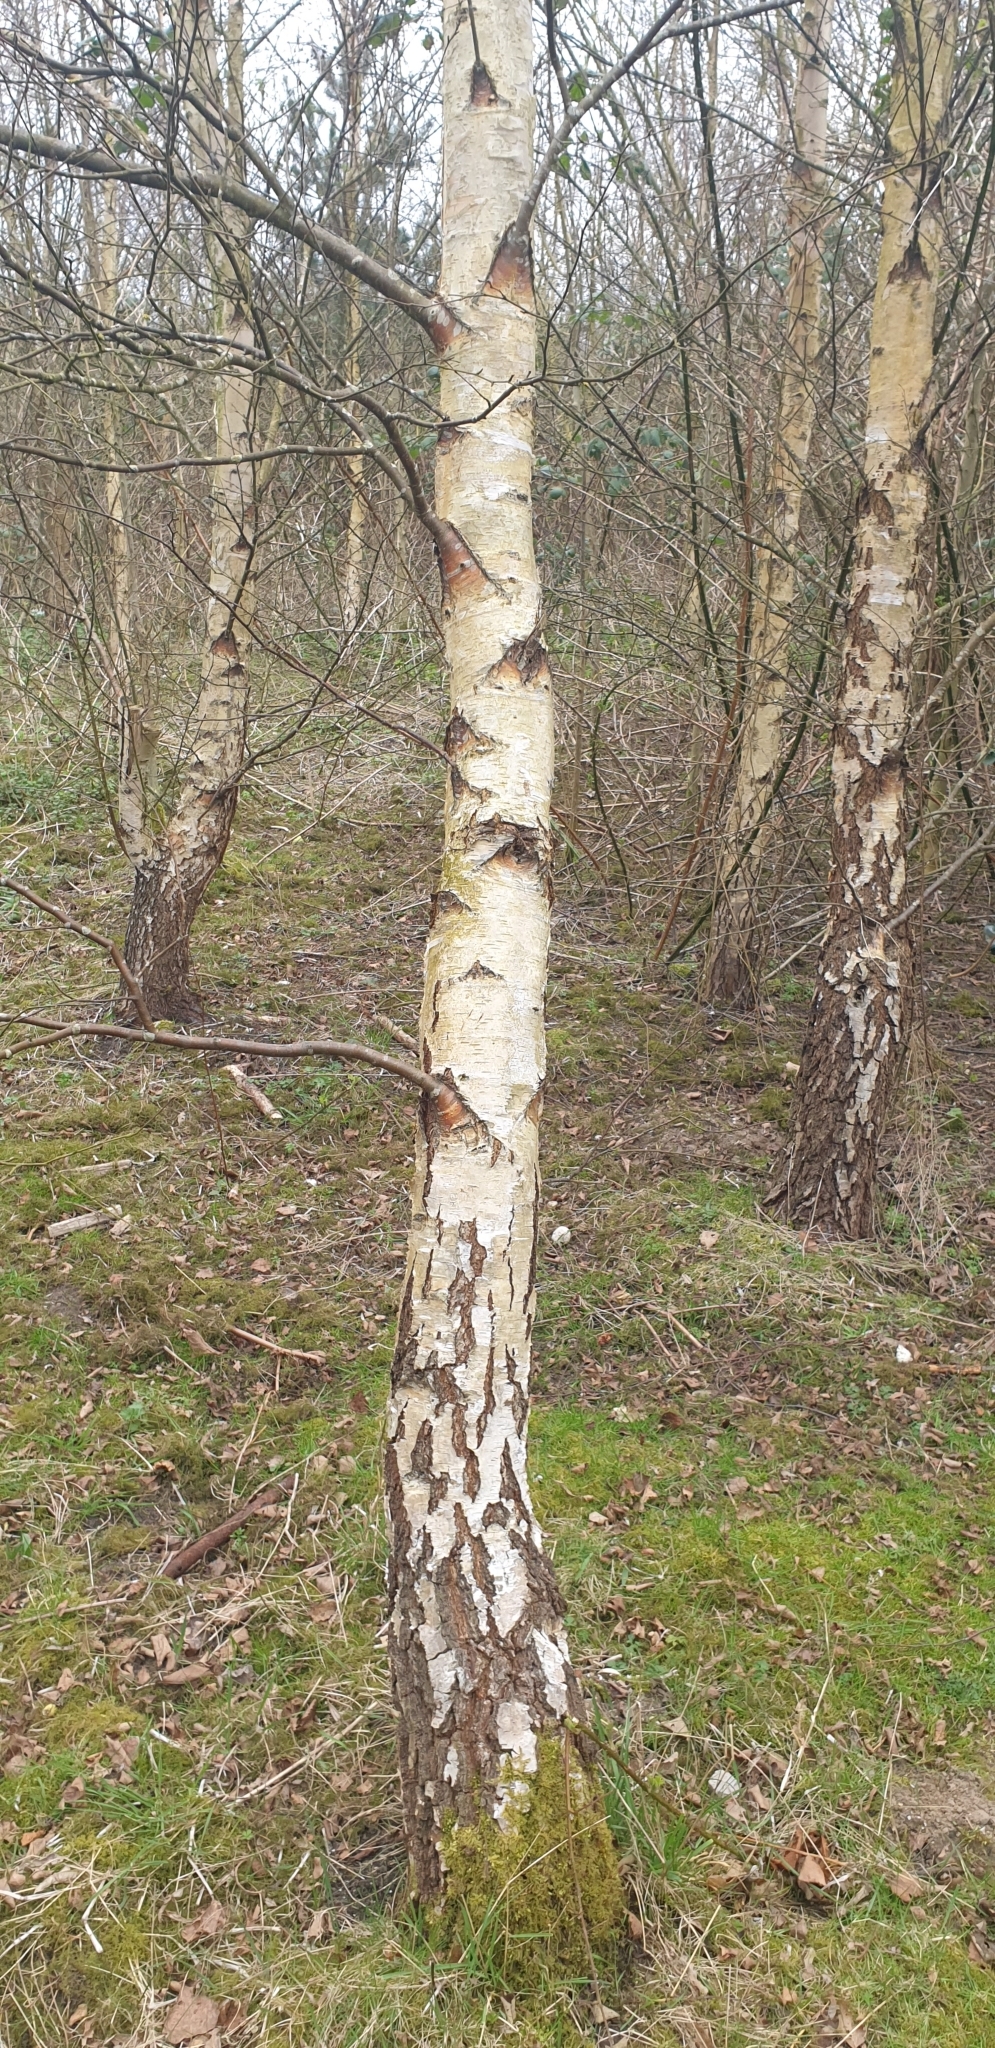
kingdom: Plantae
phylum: Tracheophyta
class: Magnoliopsida
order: Fagales
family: Betulaceae
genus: Betula
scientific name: Betula pendula
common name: Silver birch
